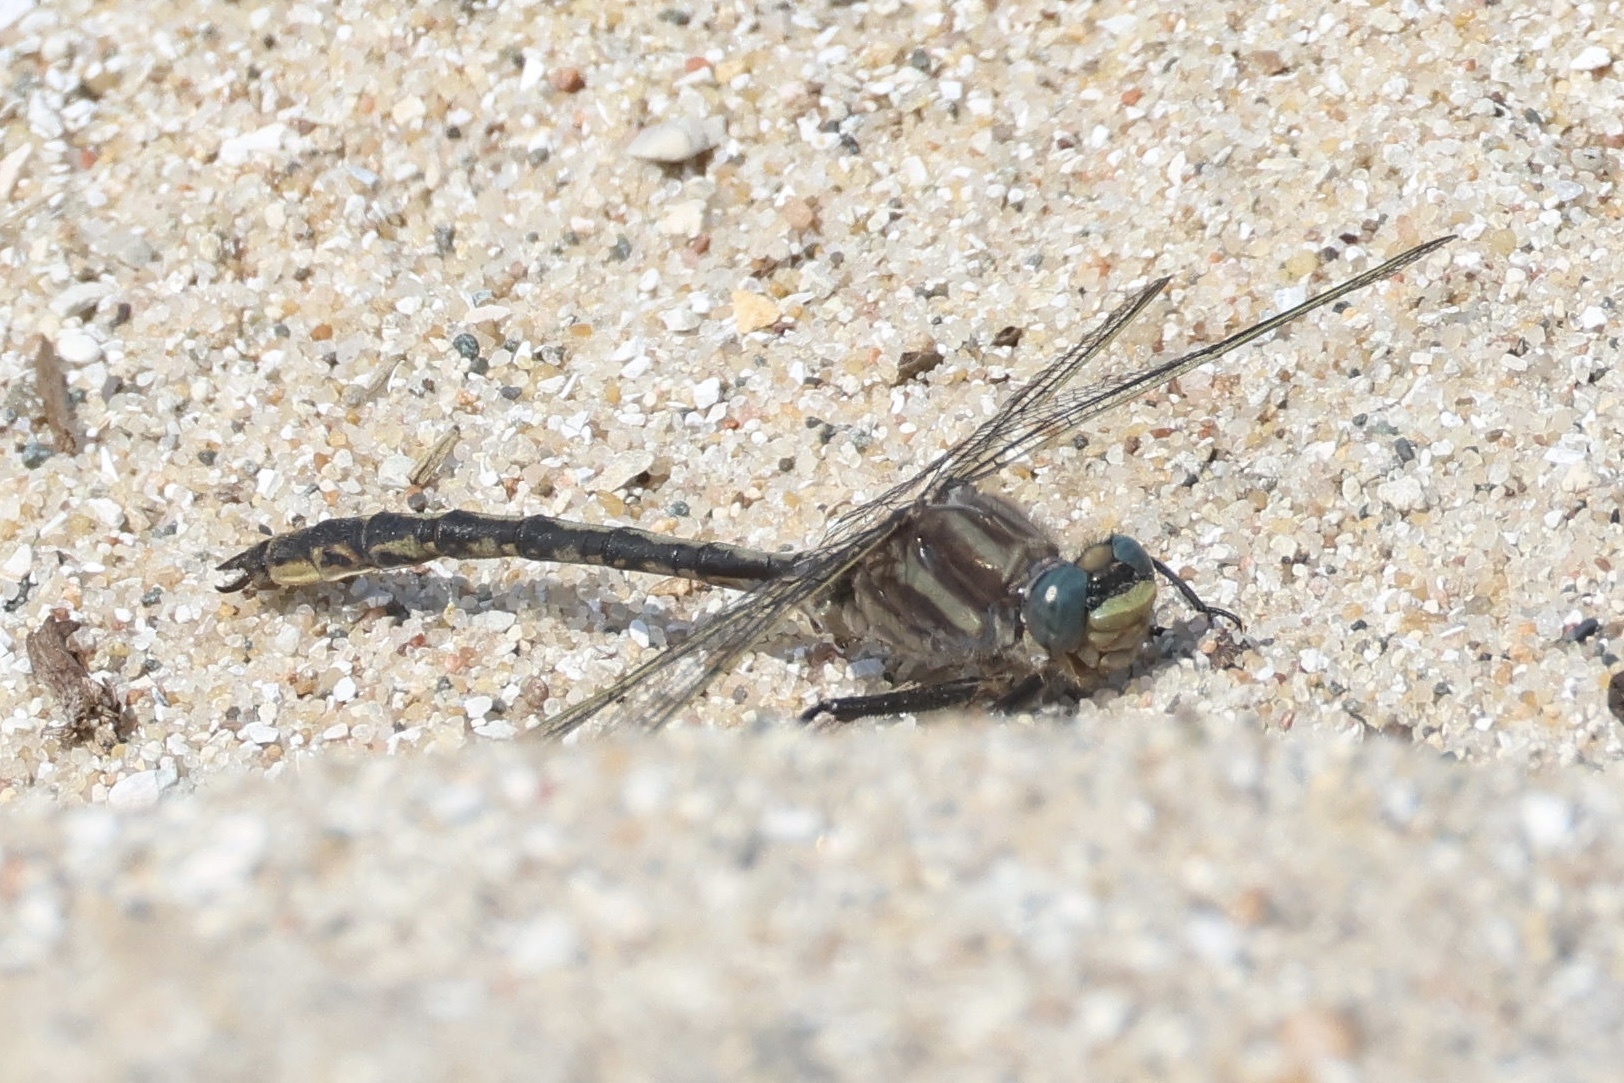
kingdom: Animalia
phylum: Arthropoda
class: Insecta
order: Odonata
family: Gomphidae
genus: Phanogomphus
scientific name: Phanogomphus spicatus
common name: Dusky clubtail
